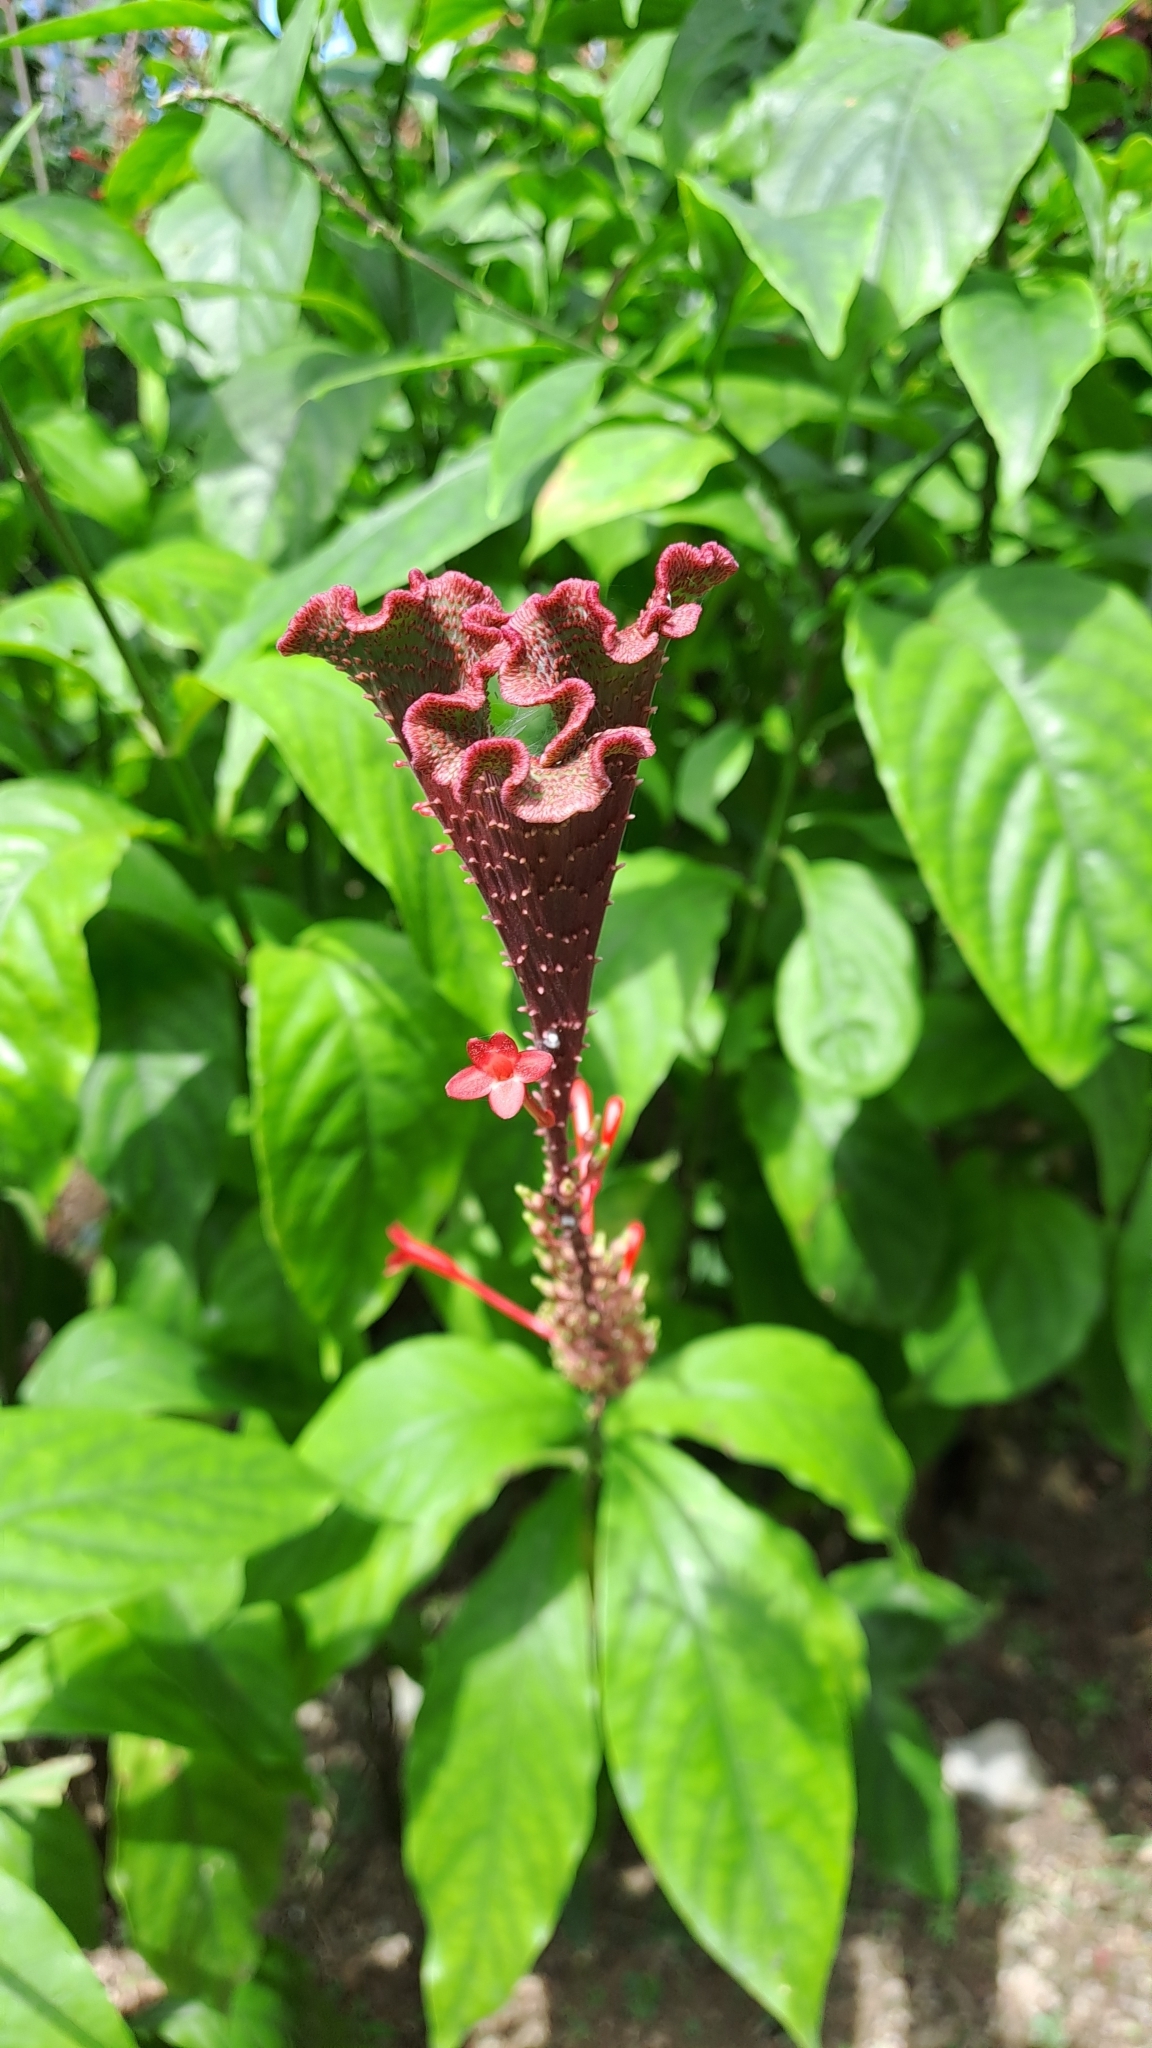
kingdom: Plantae
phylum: Tracheophyta
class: Magnoliopsida
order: Lamiales
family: Acanthaceae
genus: Odontonema
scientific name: Odontonema tubaeforme
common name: Firespike
